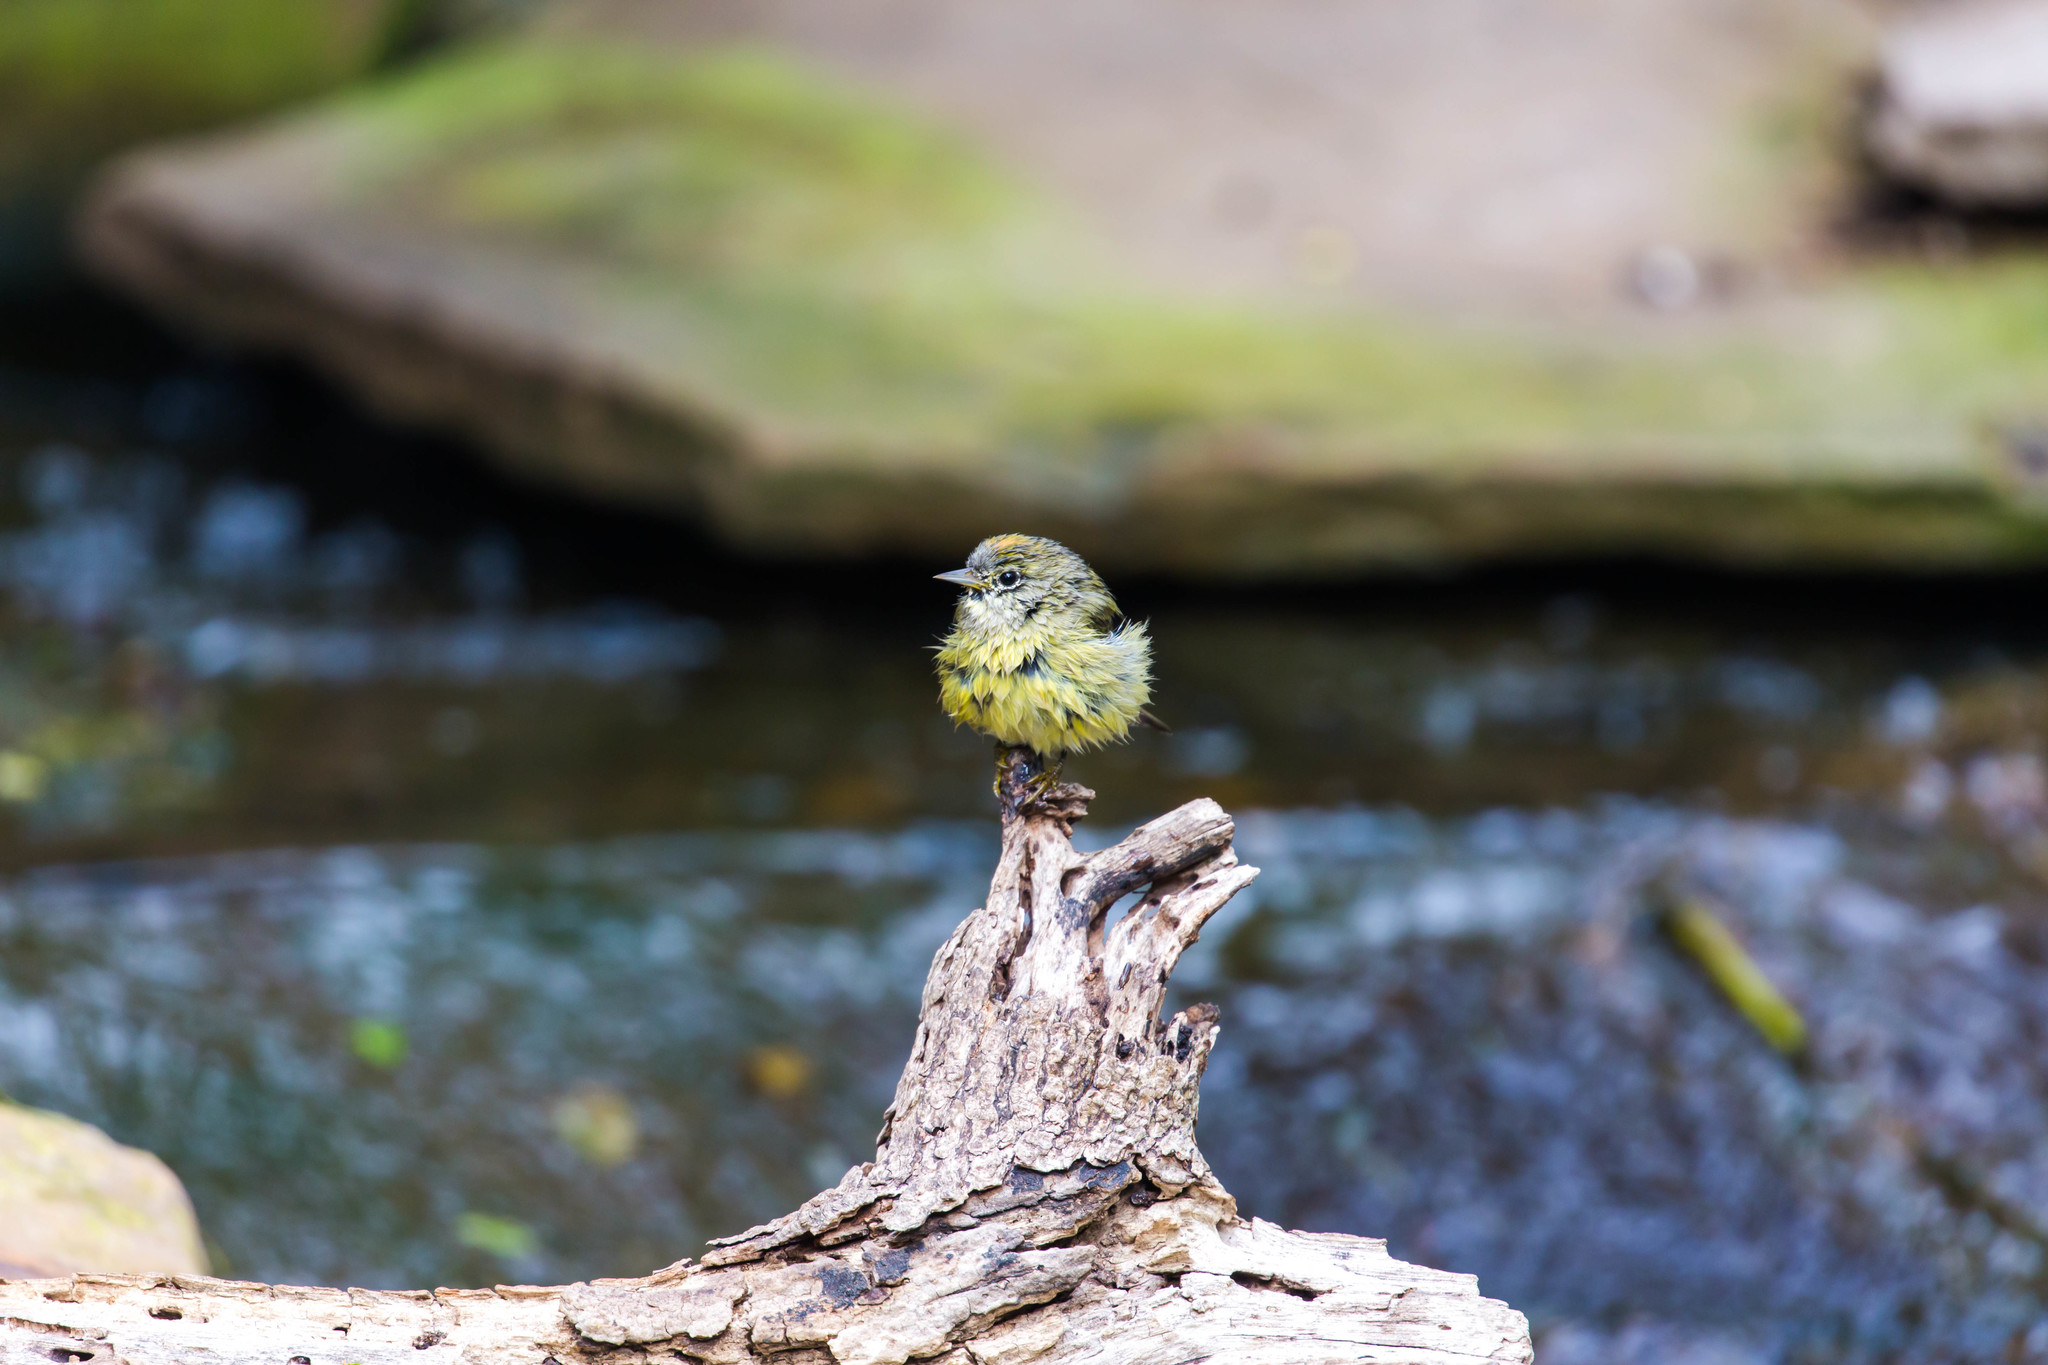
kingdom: Animalia
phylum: Chordata
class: Aves
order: Passeriformes
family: Parulidae
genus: Leiothlypis
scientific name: Leiothlypis celata
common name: Orange-crowned warbler
